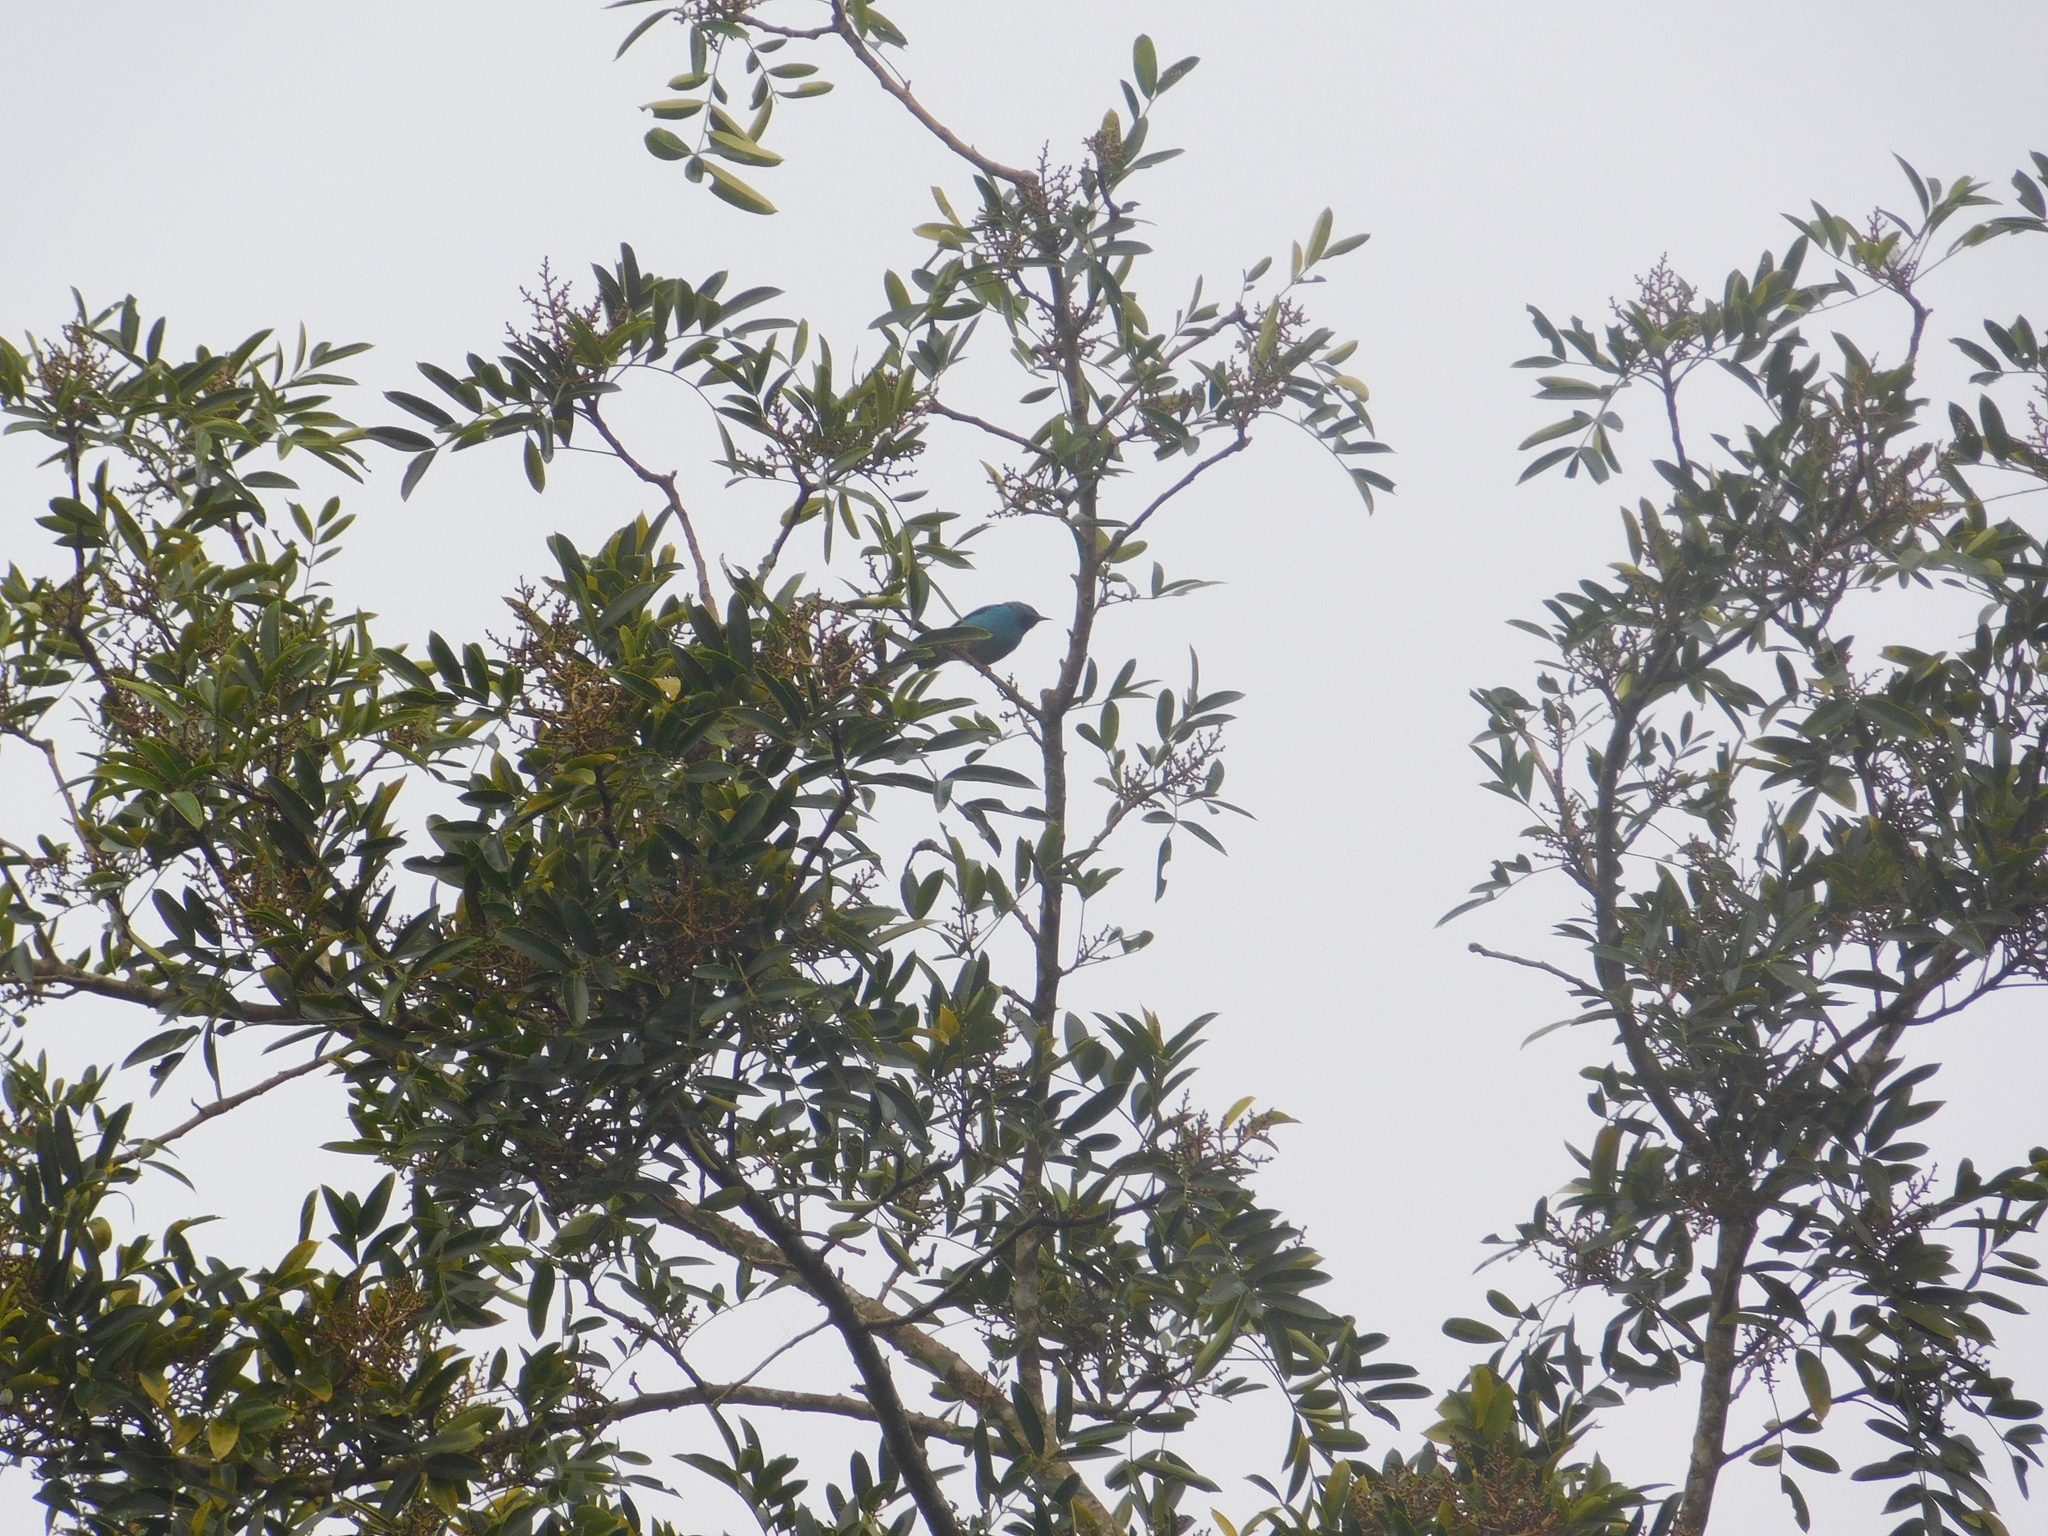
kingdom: Animalia
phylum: Chordata
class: Aves
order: Passeriformes
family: Thraupidae
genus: Dacnis
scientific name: Dacnis cayana
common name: Blue dacnis
